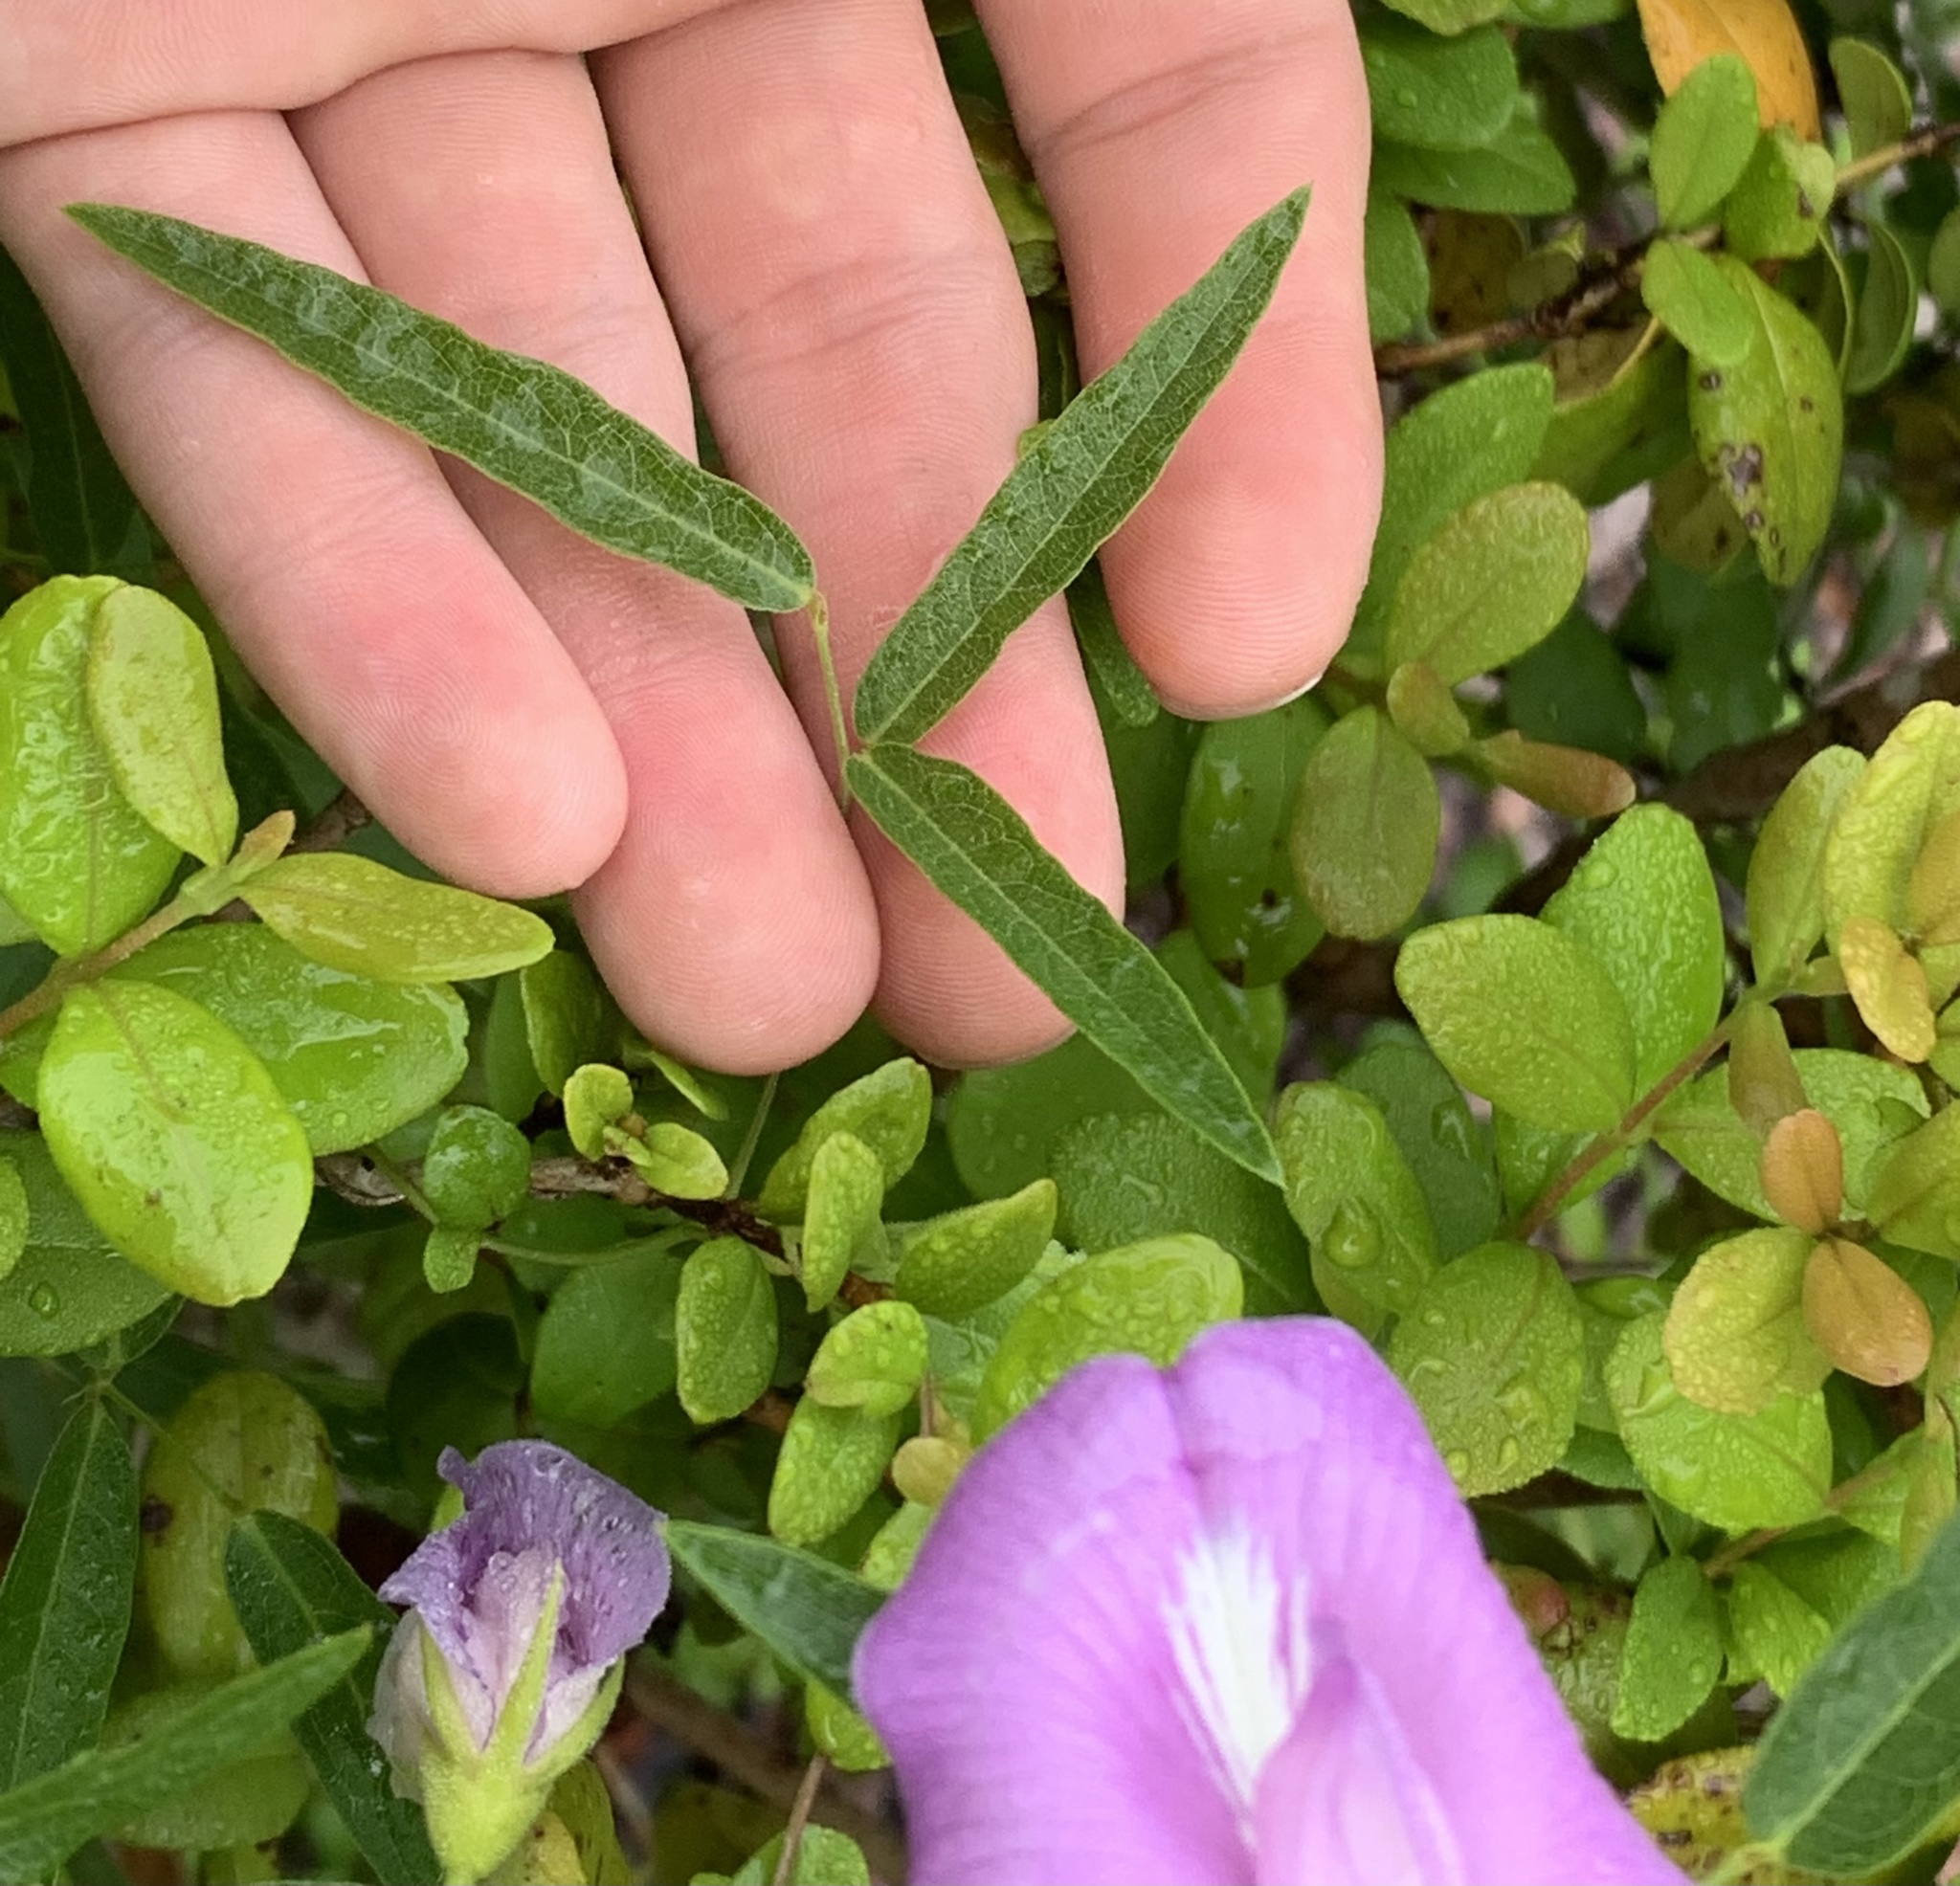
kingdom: Plantae
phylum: Tracheophyta
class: Magnoliopsida
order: Fabales
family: Fabaceae
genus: Centrosema
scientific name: Centrosema virginianum
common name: Butterfly-pea
